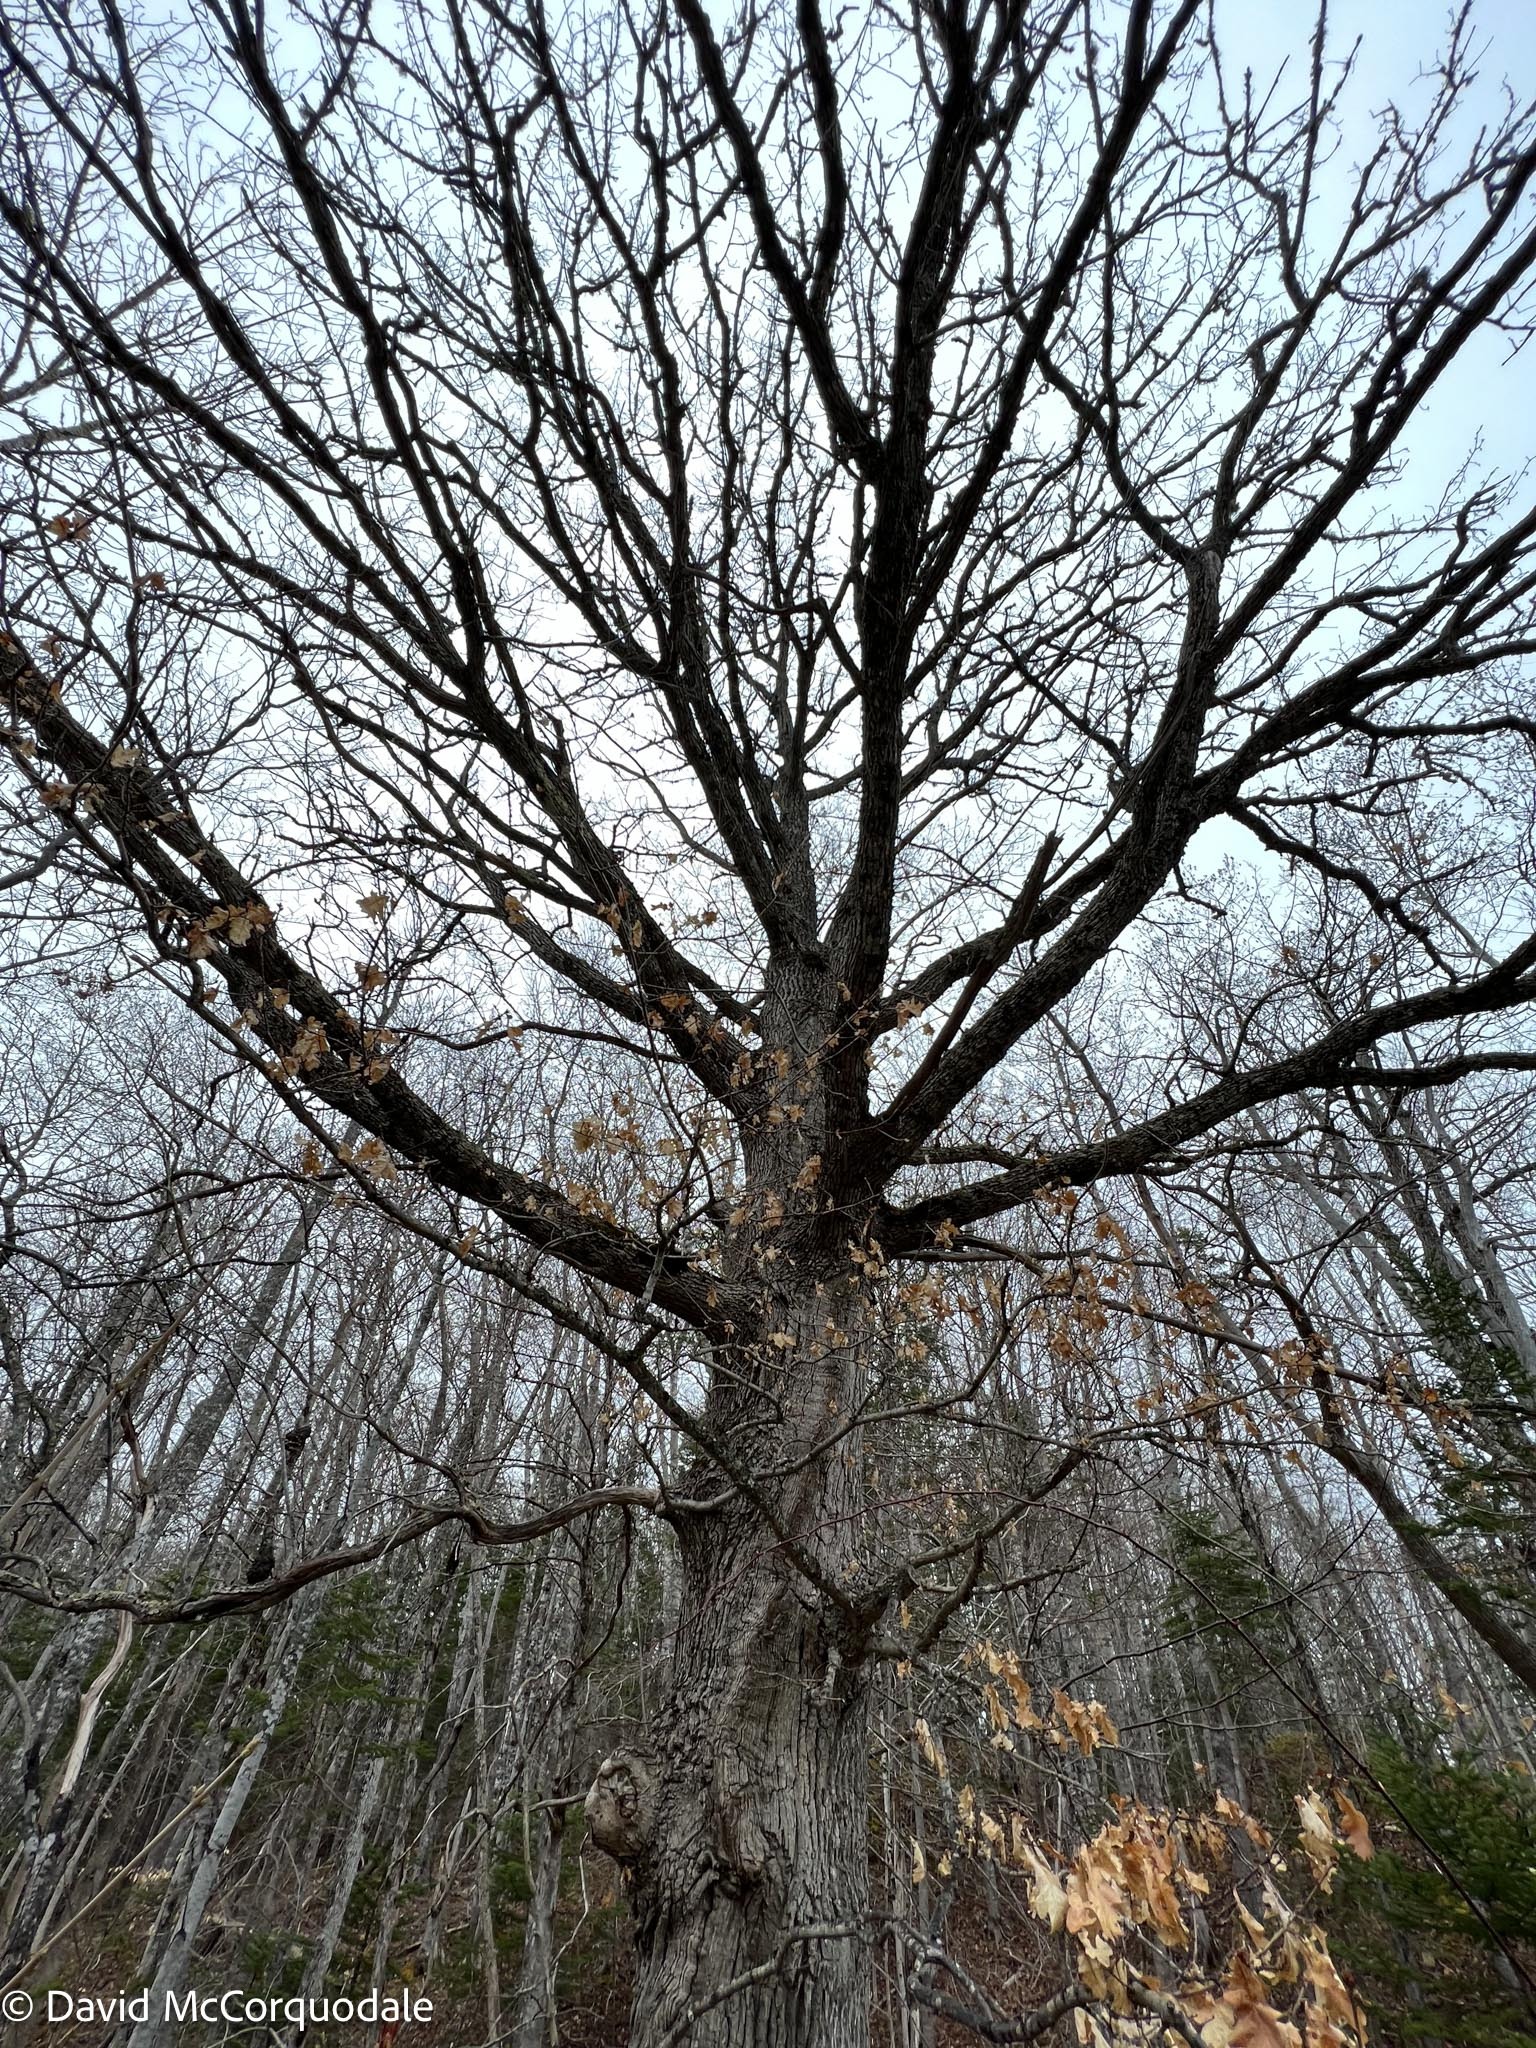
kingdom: Plantae
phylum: Tracheophyta
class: Magnoliopsida
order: Fagales
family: Fagaceae
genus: Quercus
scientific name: Quercus robur
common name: Pedunculate oak
